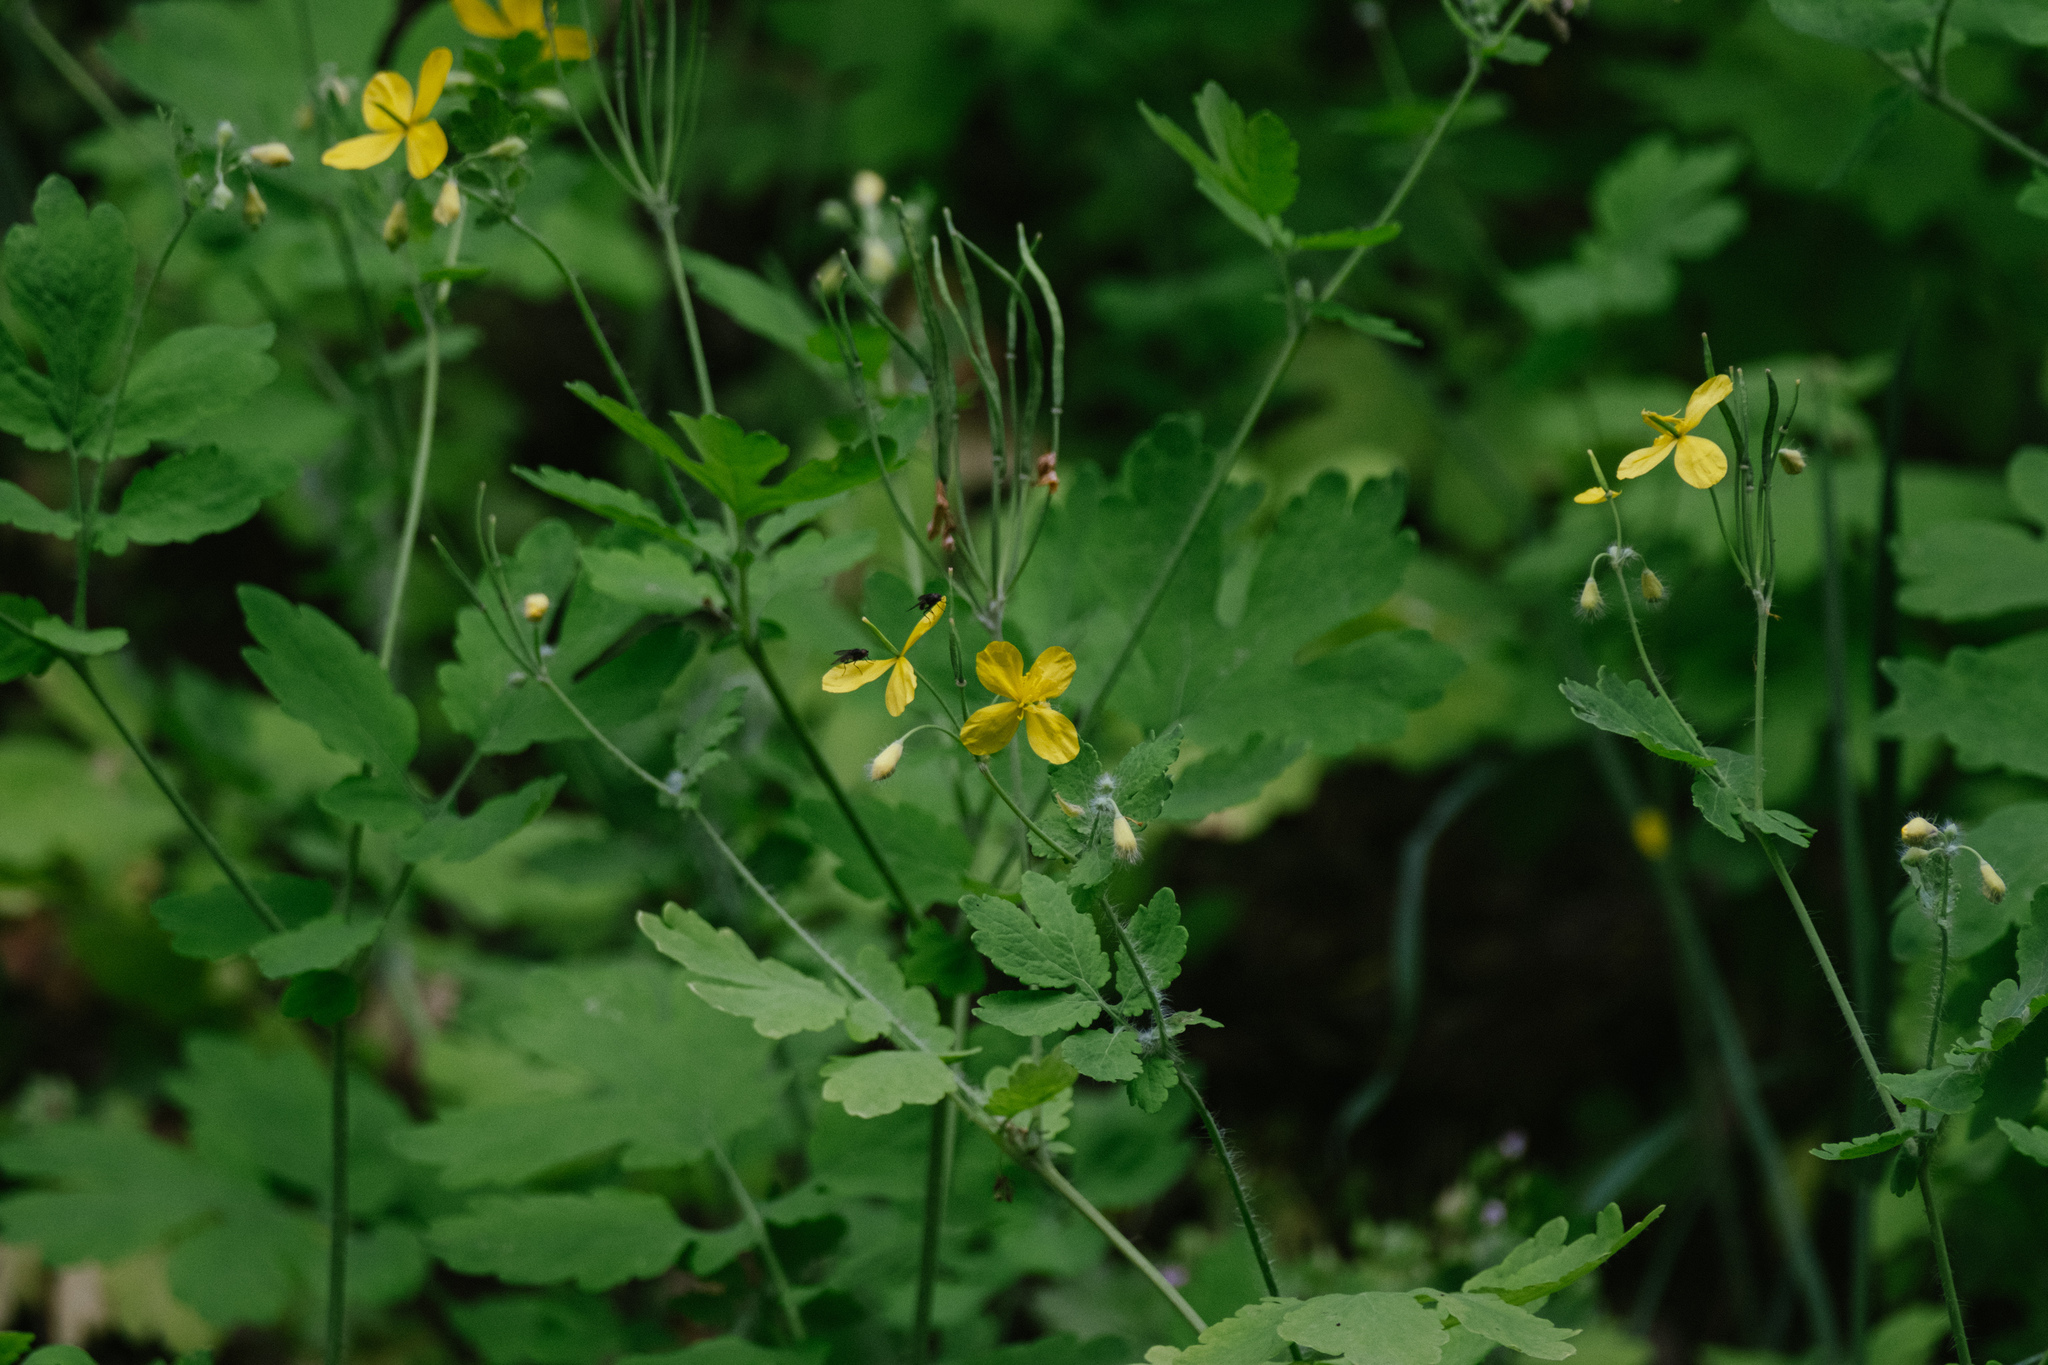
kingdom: Plantae
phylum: Tracheophyta
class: Magnoliopsida
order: Ranunculales
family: Papaveraceae
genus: Chelidonium
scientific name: Chelidonium majus
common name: Greater celandine
